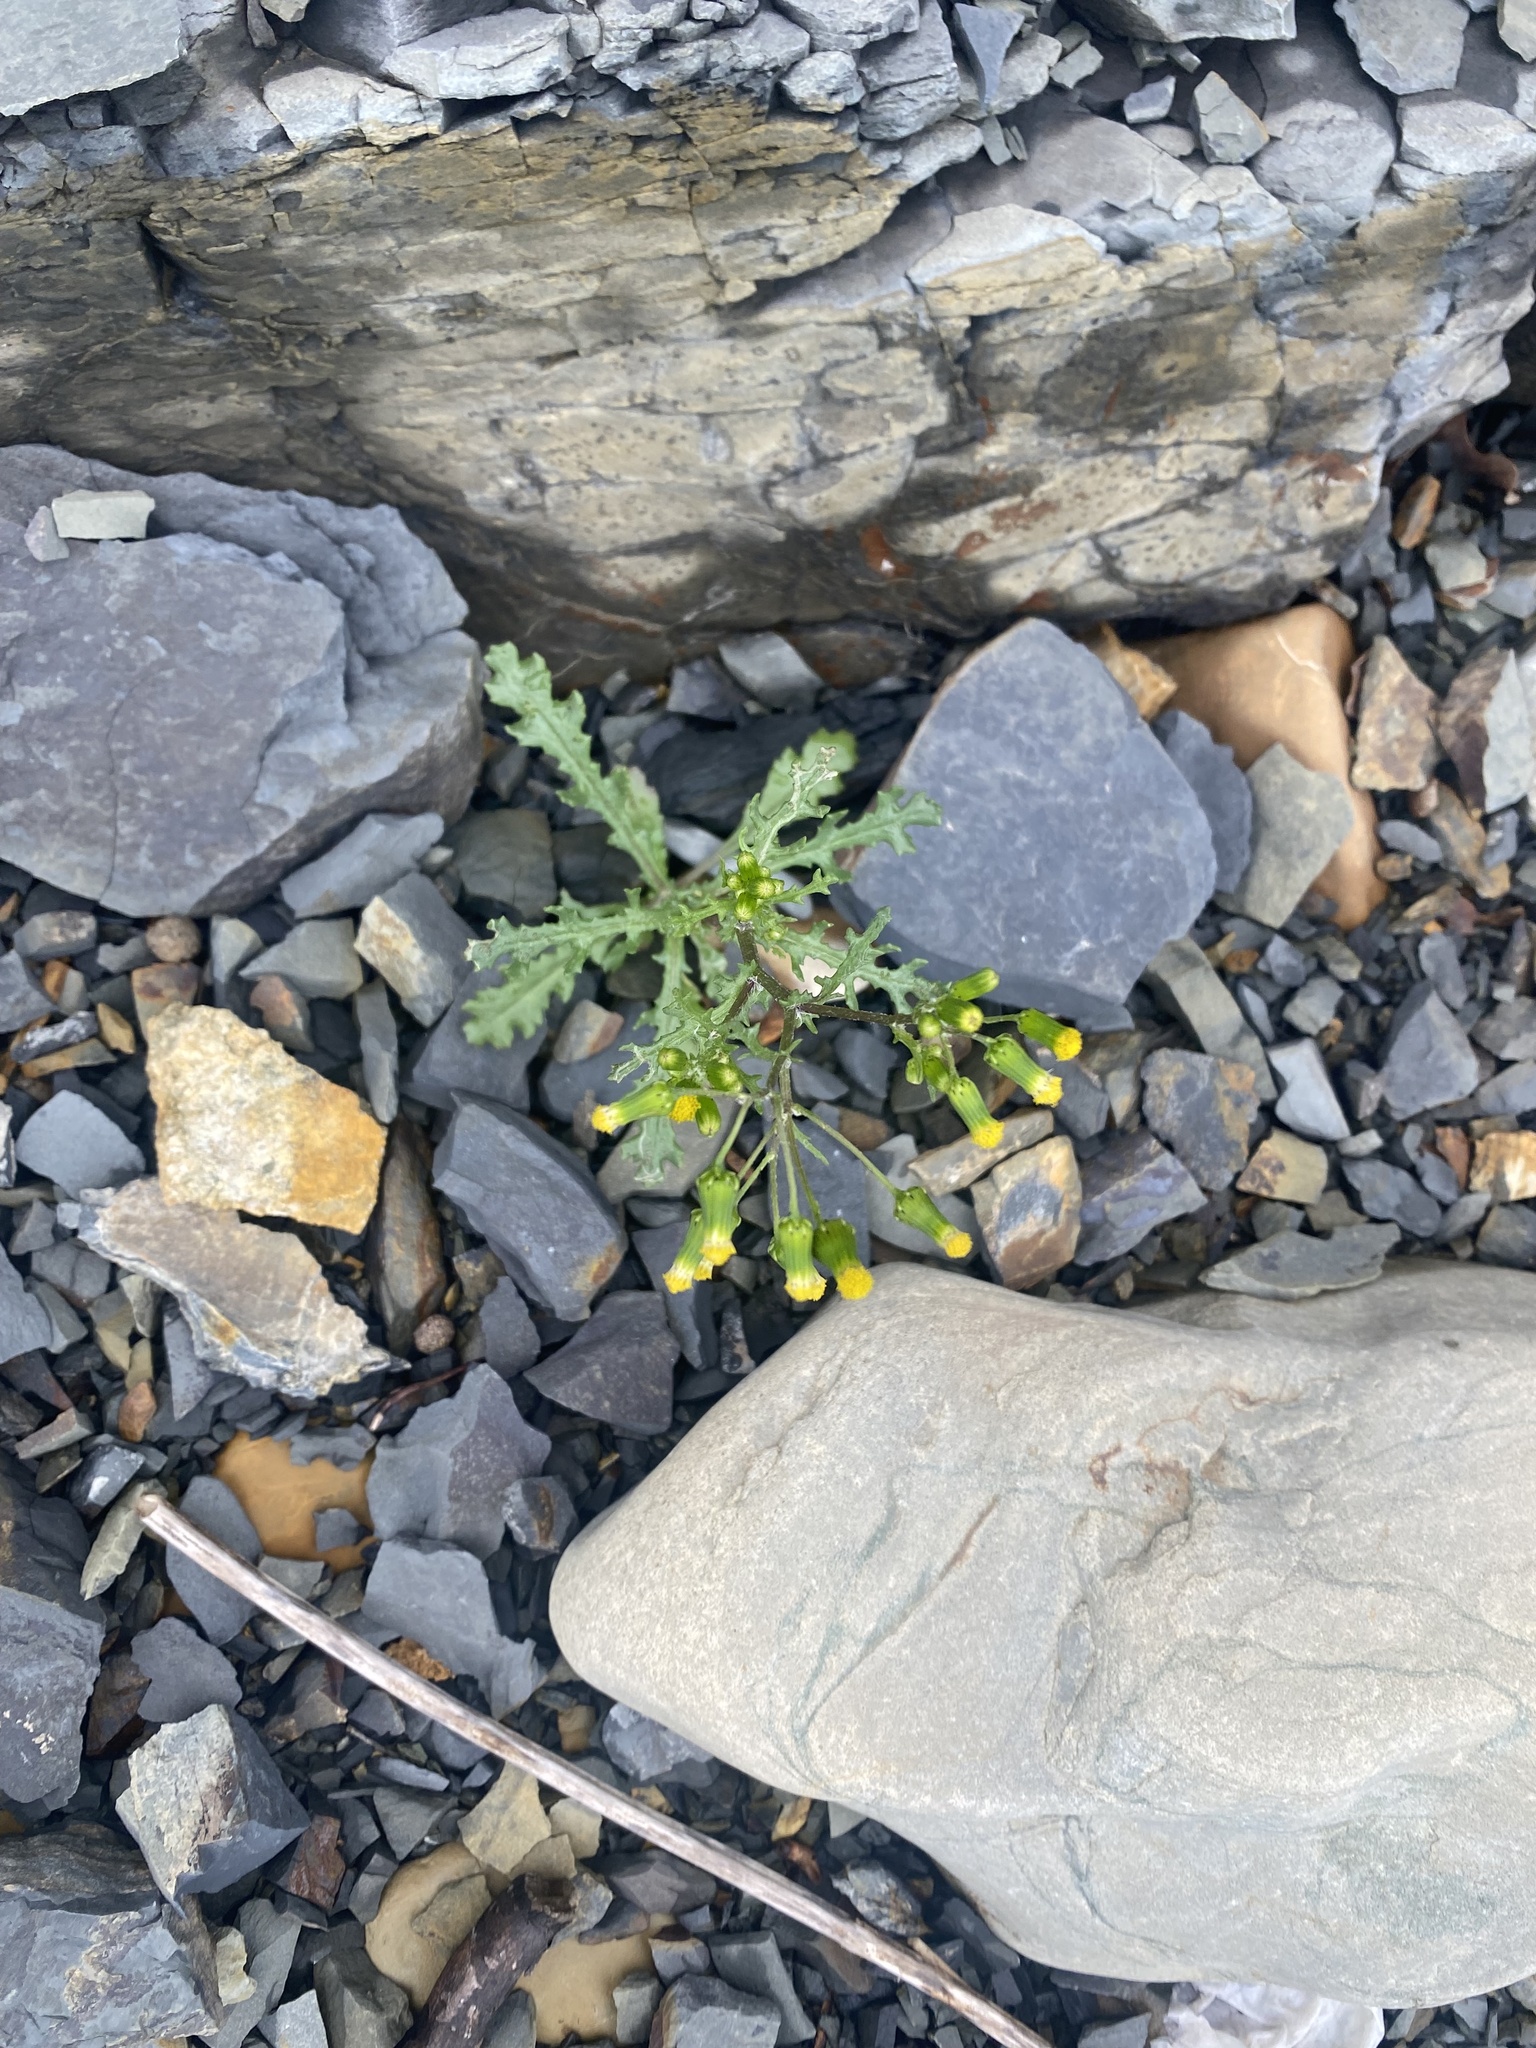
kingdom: Plantae
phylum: Tracheophyta
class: Magnoliopsida
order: Asterales
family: Asteraceae
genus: Senecio
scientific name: Senecio vulgaris
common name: Old-man-in-the-spring
